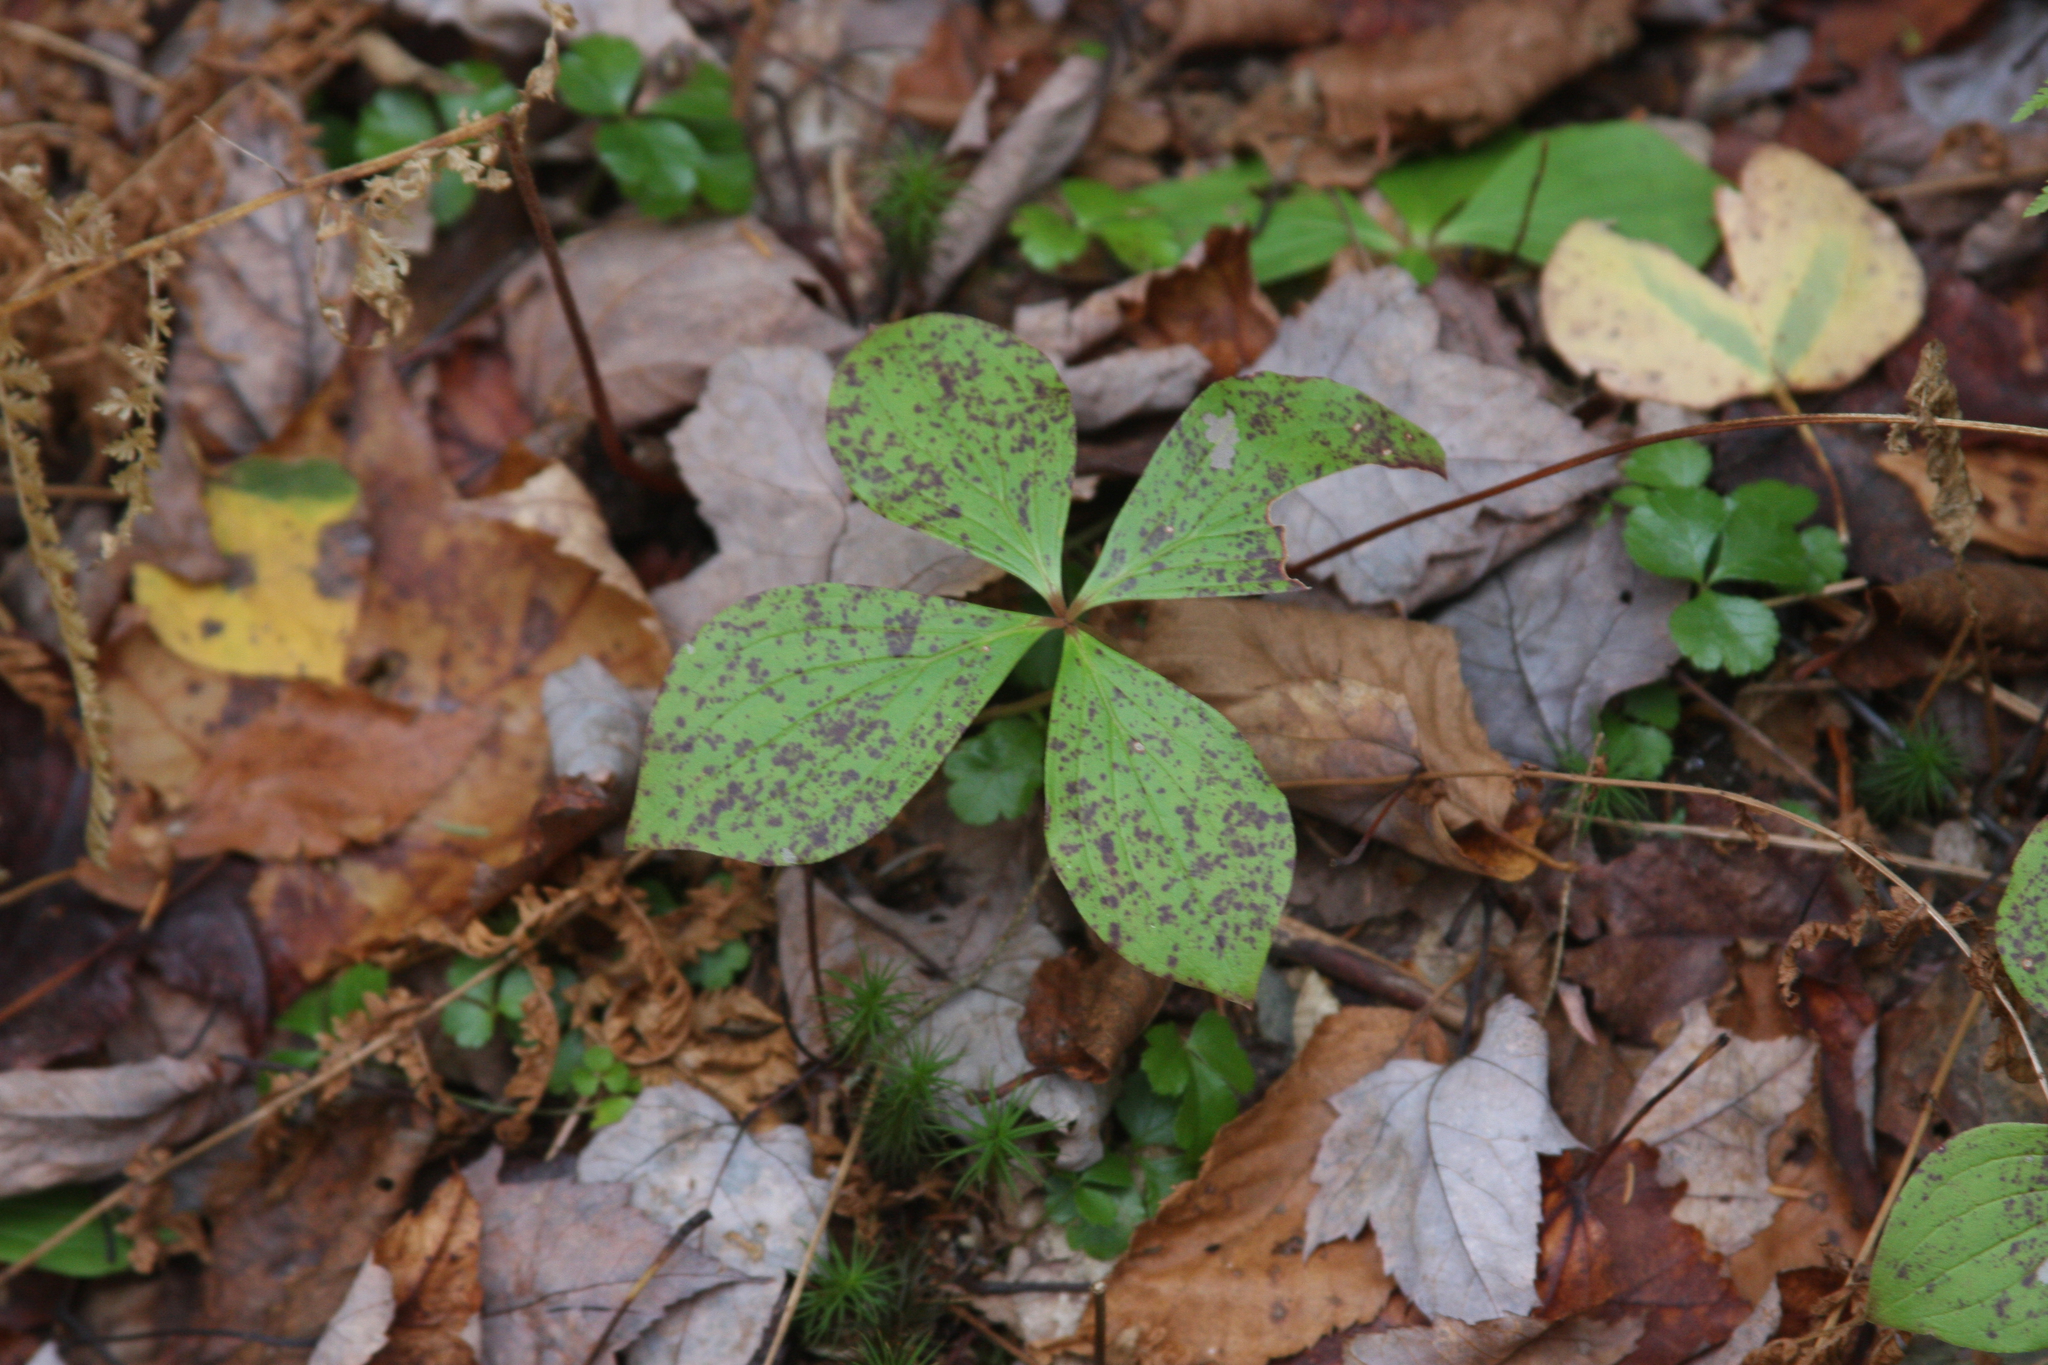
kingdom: Plantae
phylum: Tracheophyta
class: Magnoliopsida
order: Cornales
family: Cornaceae
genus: Cornus
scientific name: Cornus canadensis
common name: Creeping dogwood
